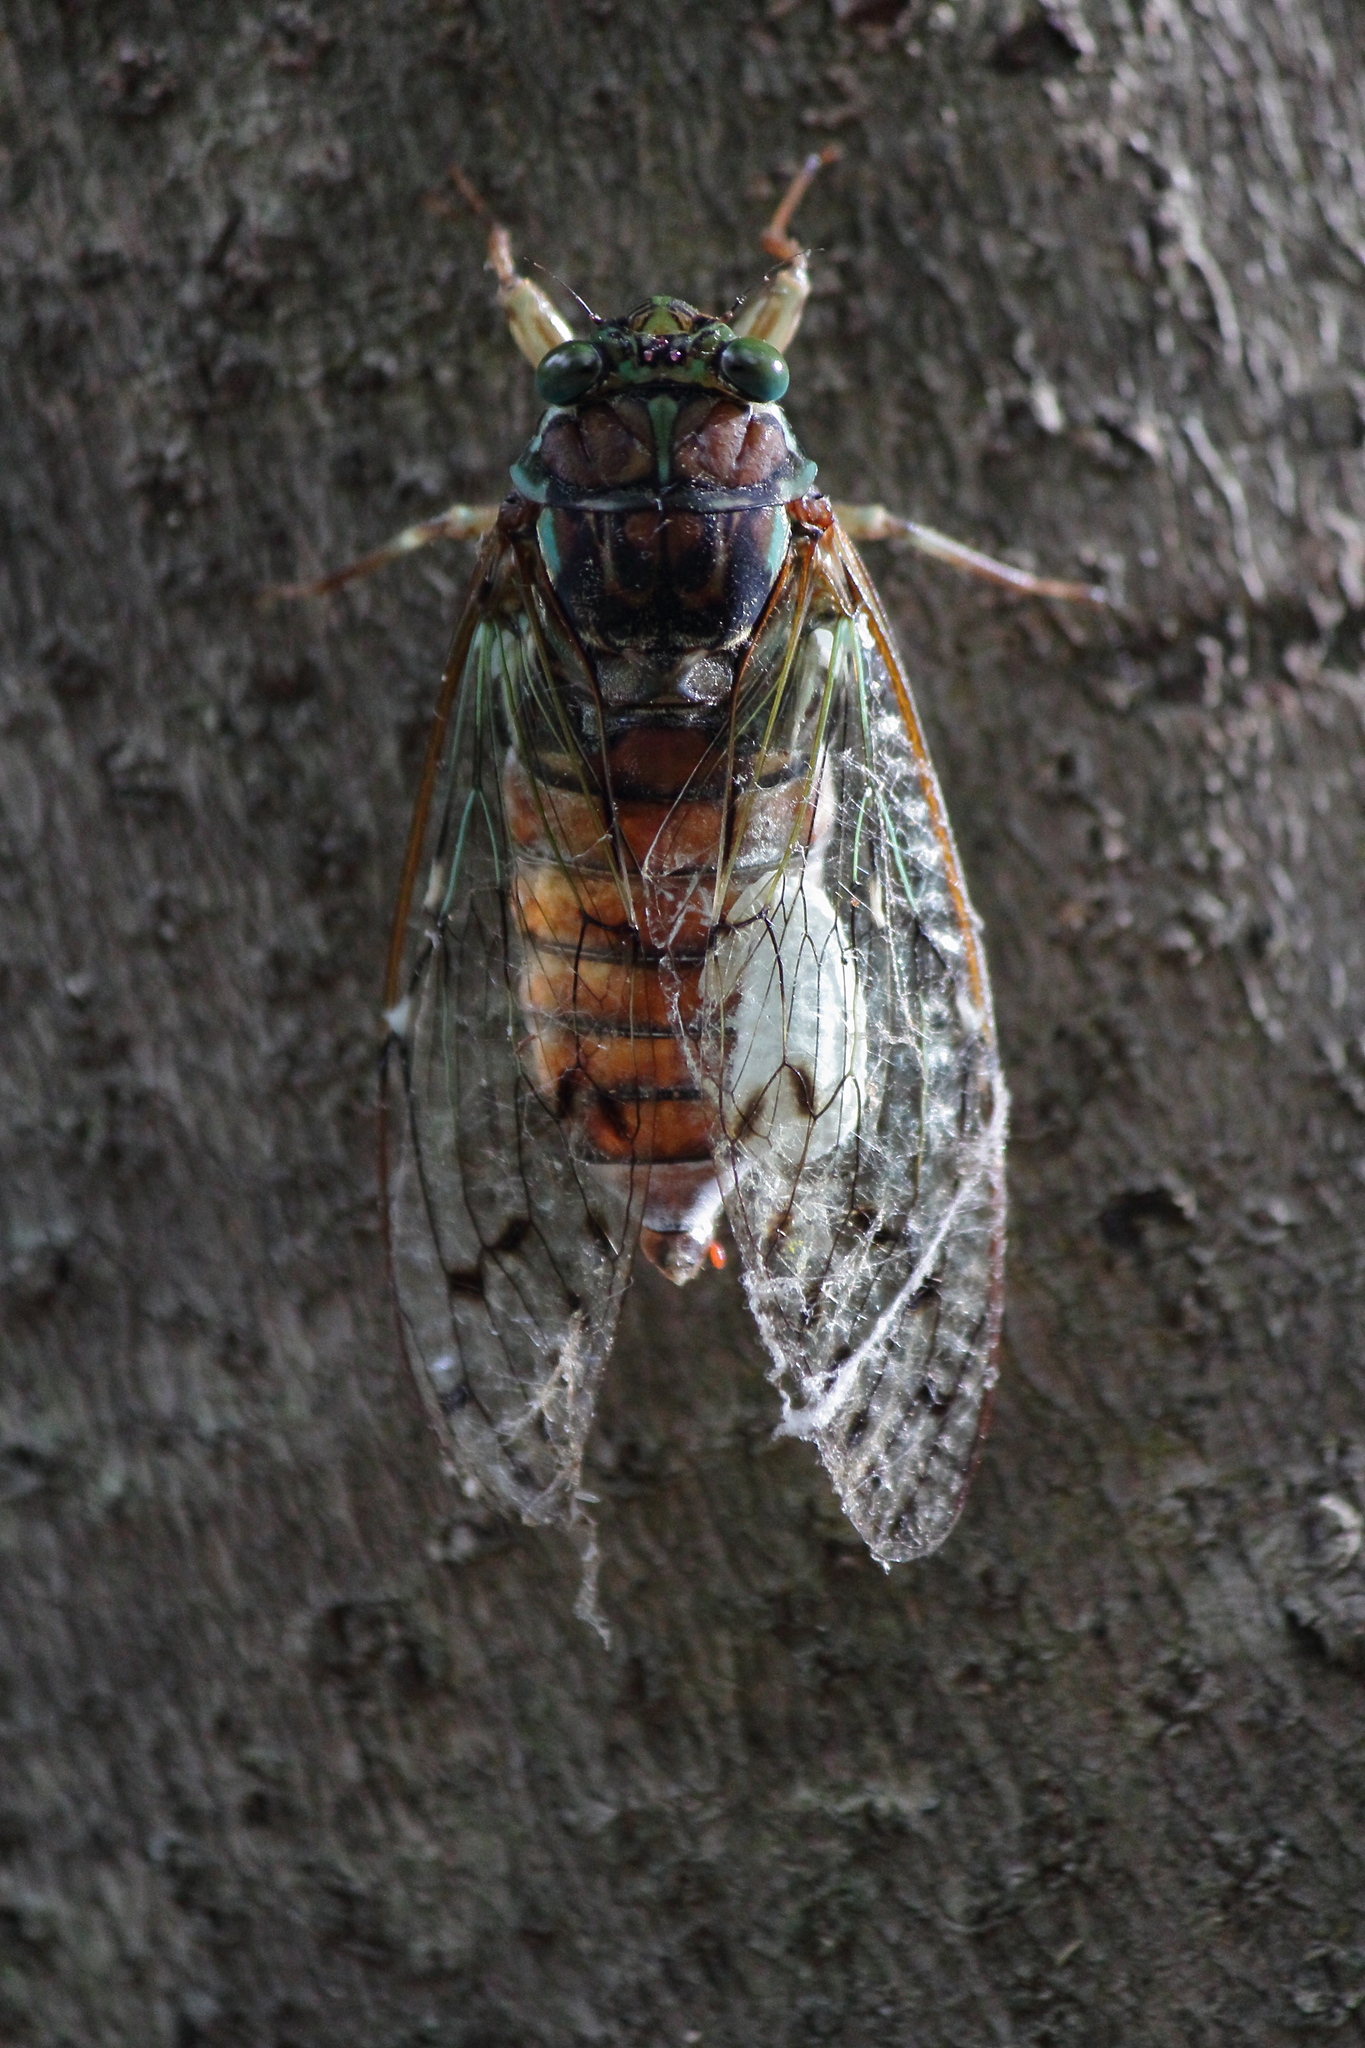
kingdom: Animalia
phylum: Arthropoda
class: Insecta
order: Lepidoptera
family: Epipyropidae
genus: Epipomponia
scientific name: Epipomponia nawai
